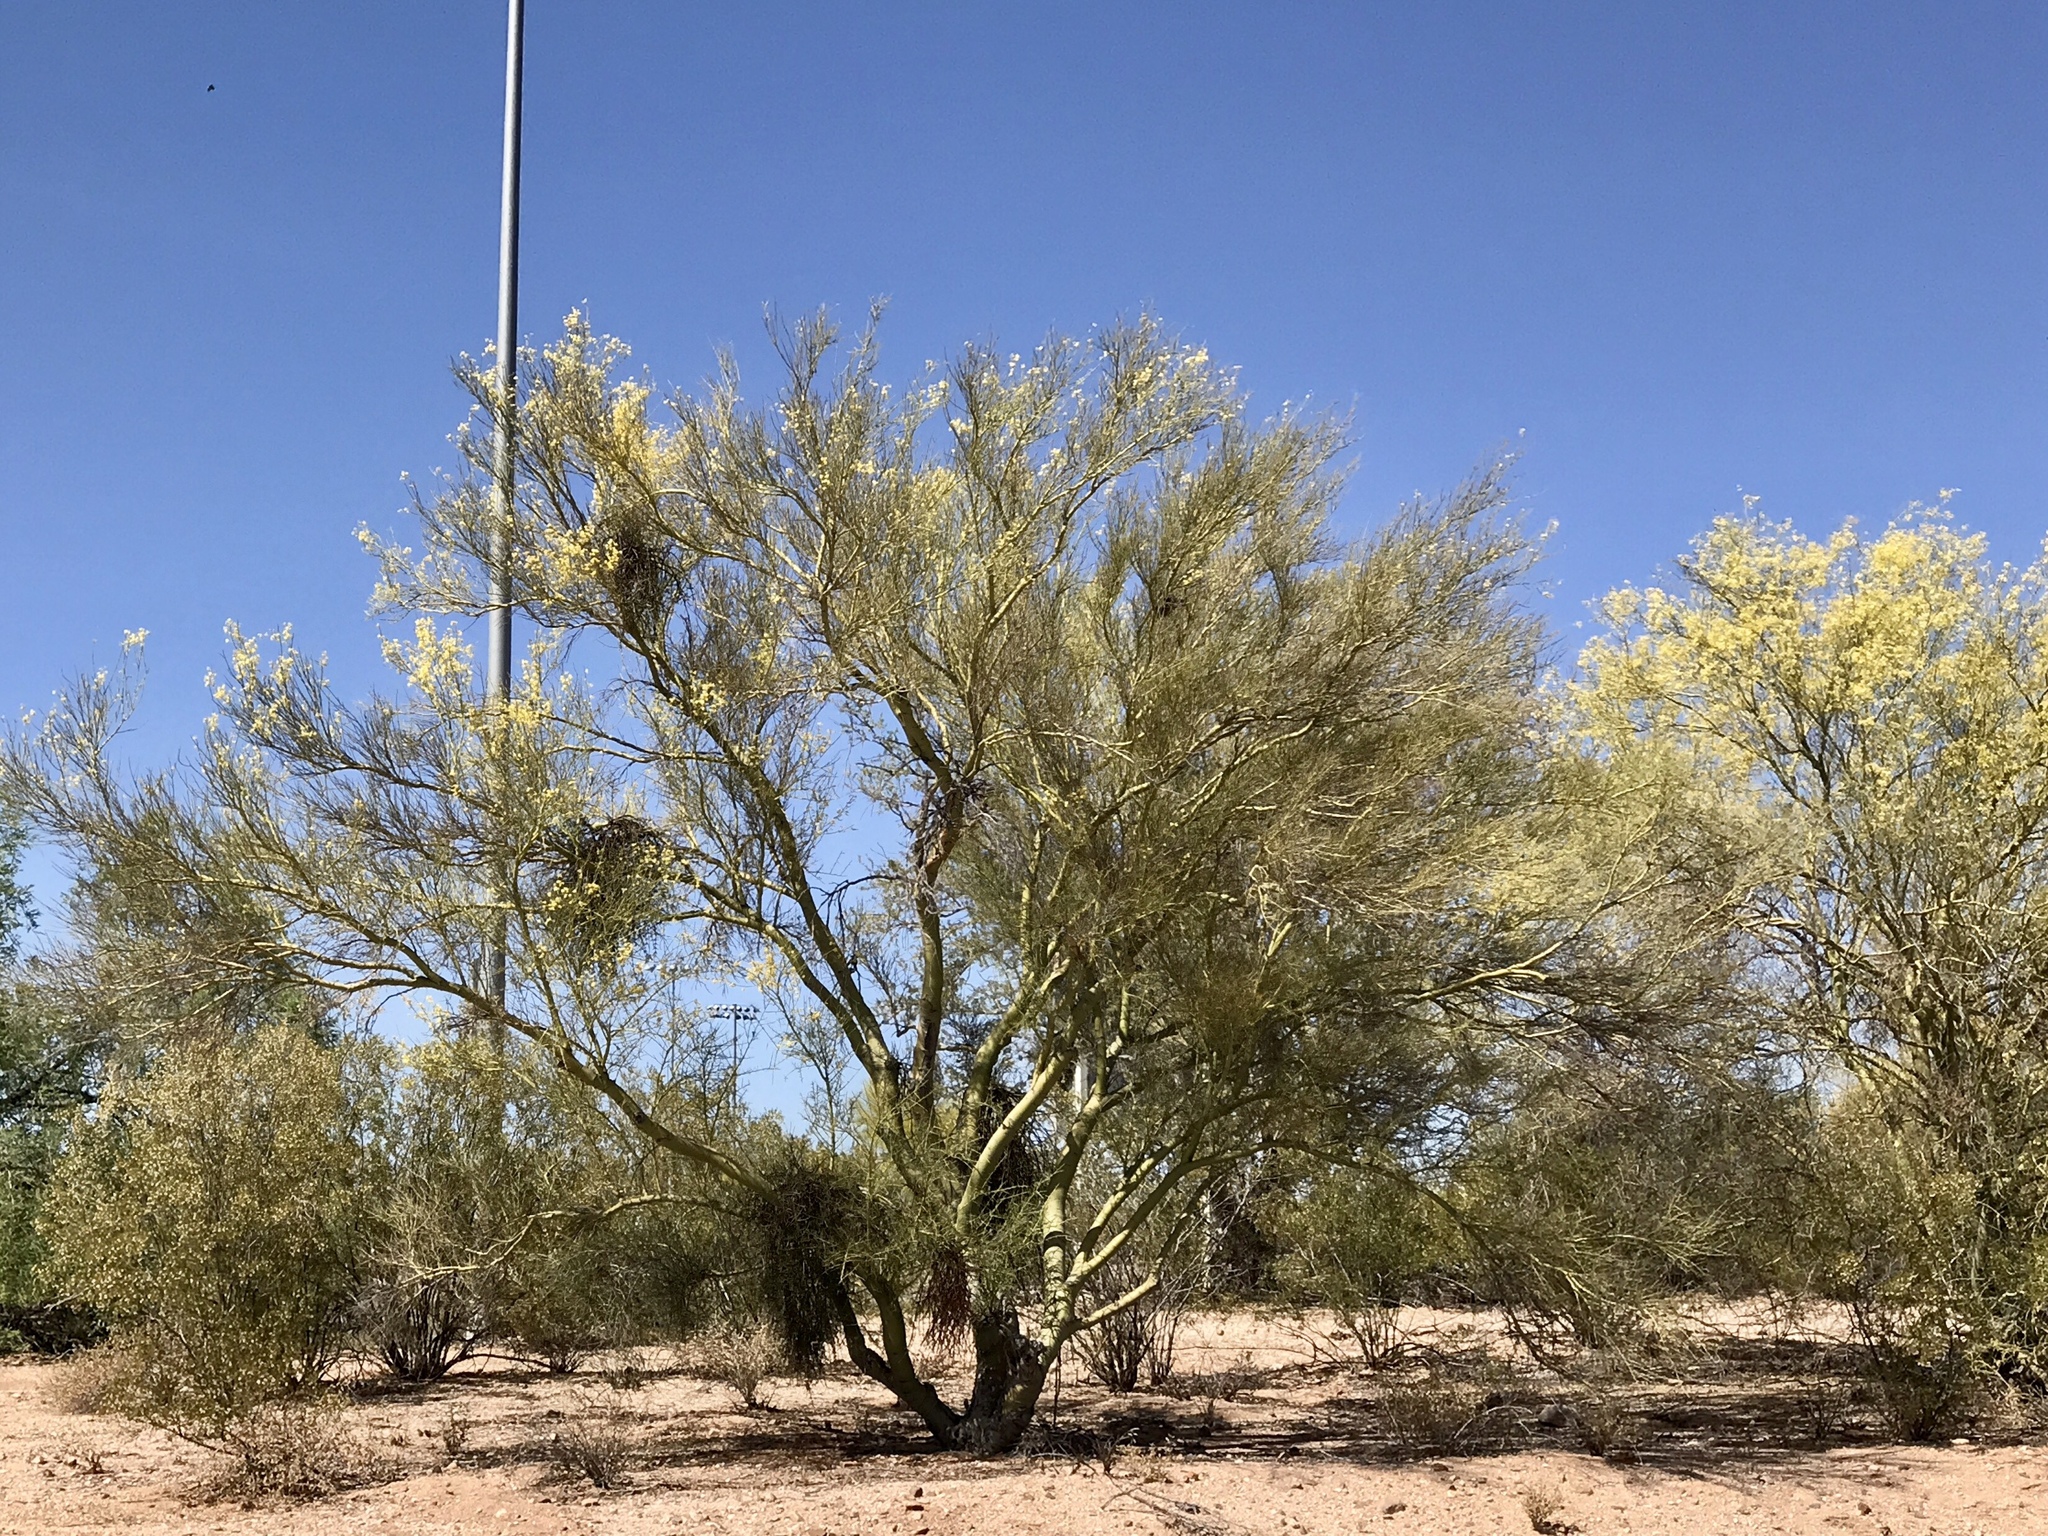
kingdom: Plantae
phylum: Tracheophyta
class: Magnoliopsida
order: Fabales
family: Fabaceae
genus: Parkinsonia
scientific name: Parkinsonia microphylla
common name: Yellow paloverde
